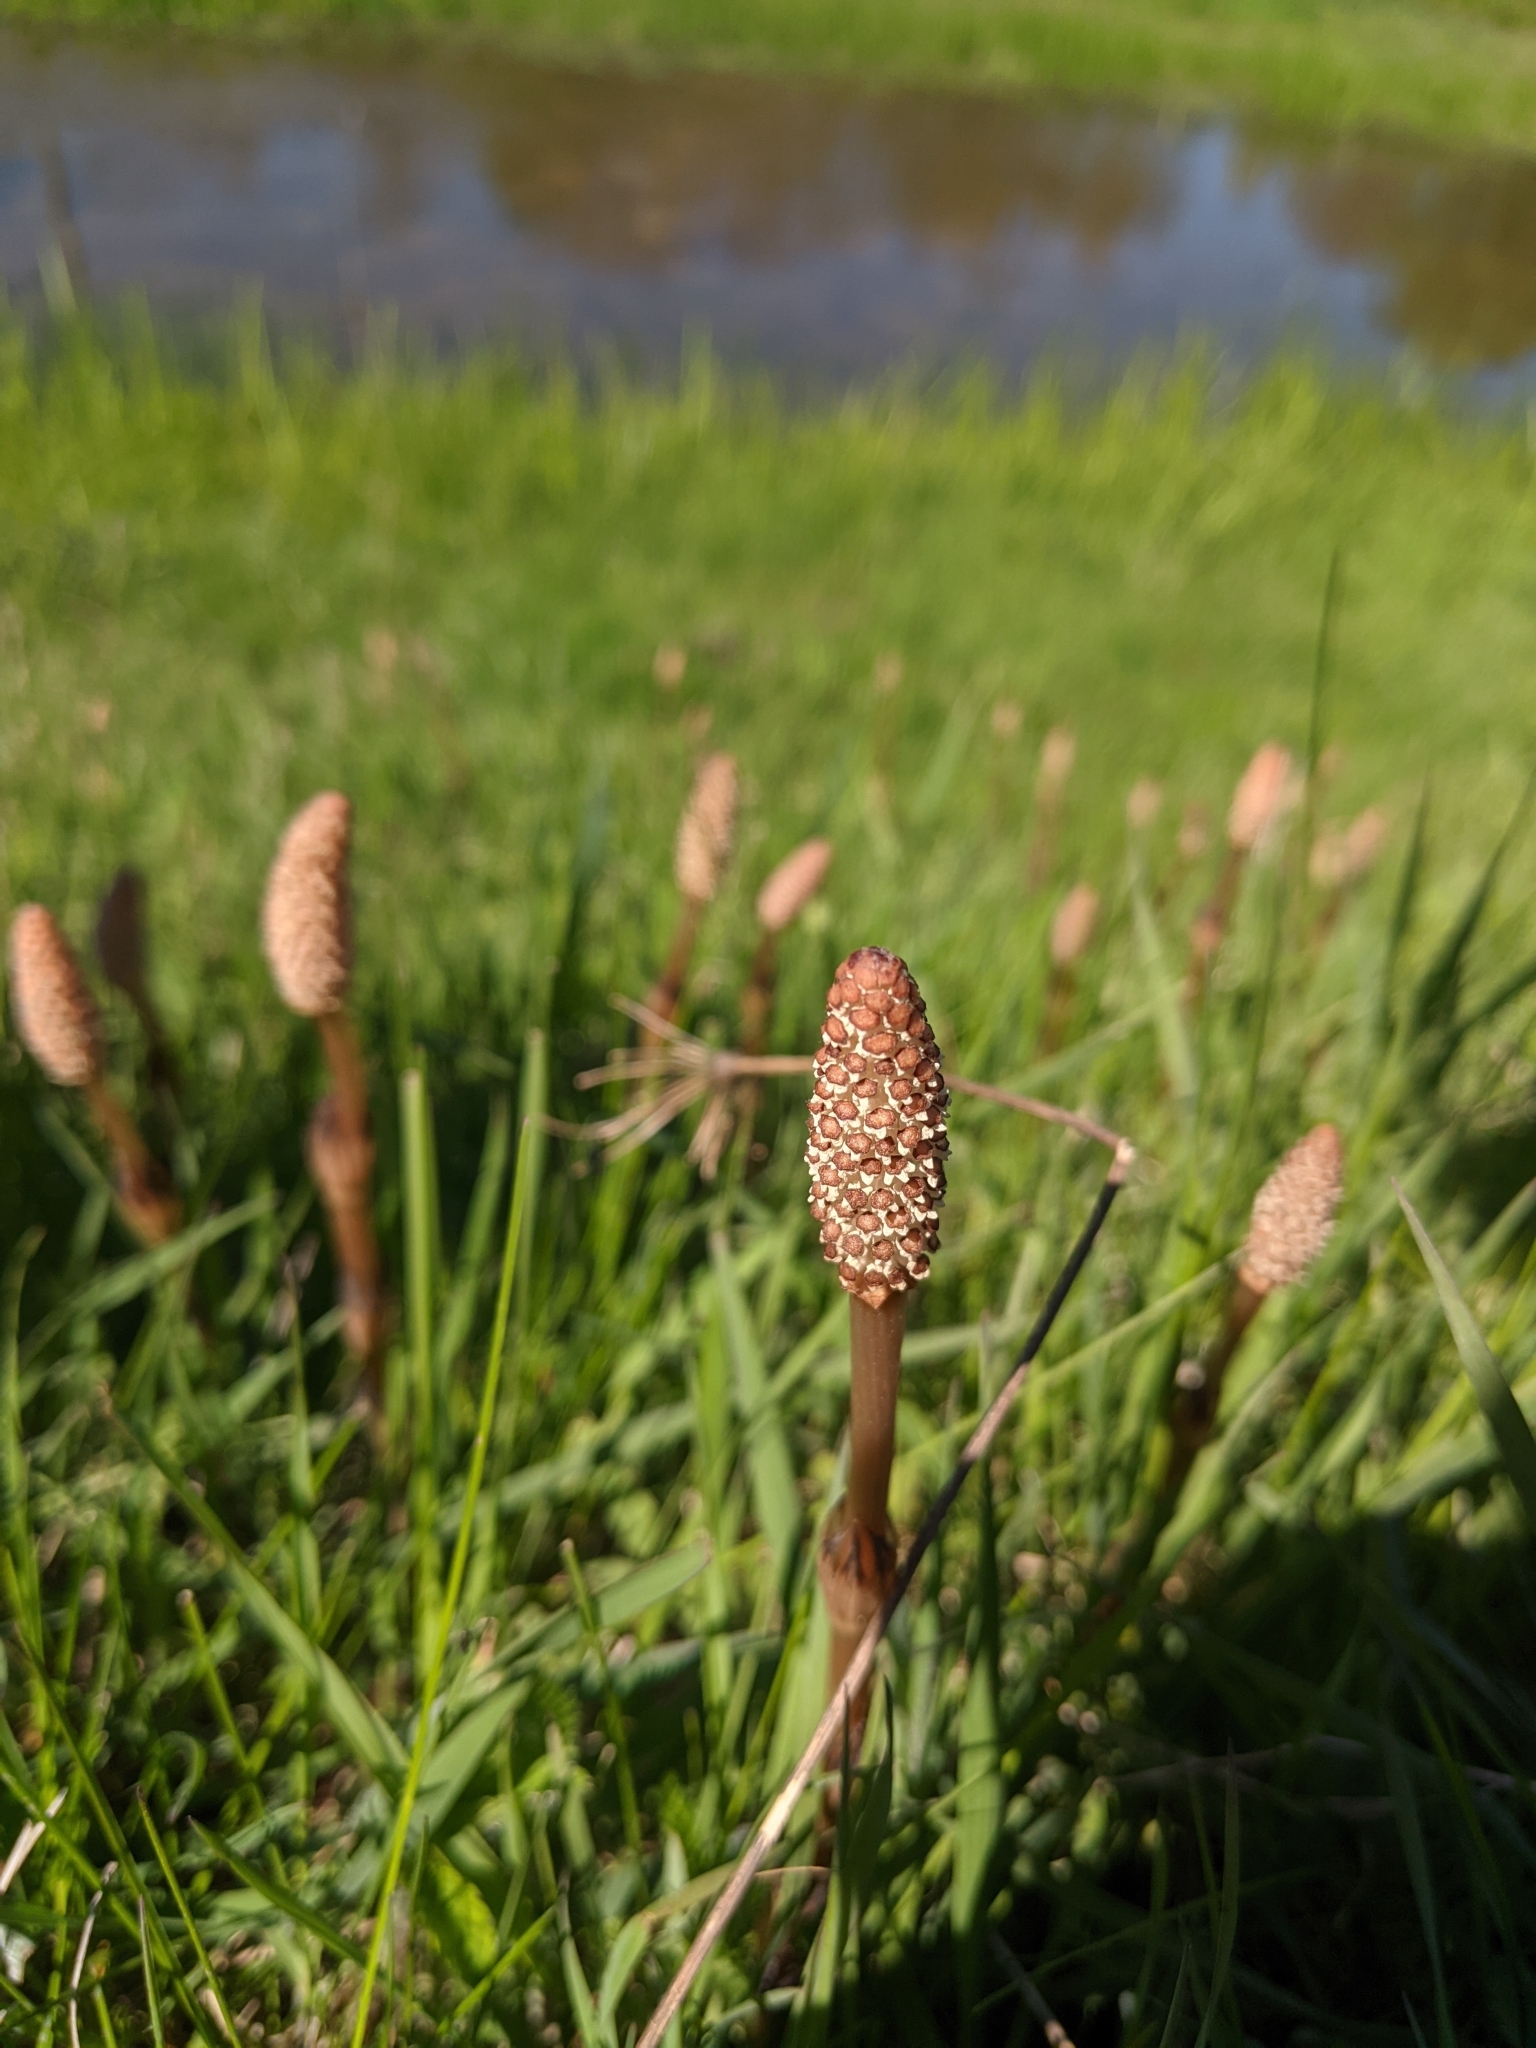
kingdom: Plantae
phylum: Tracheophyta
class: Polypodiopsida
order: Equisetales
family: Equisetaceae
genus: Equisetum
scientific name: Equisetum arvense
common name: Field horsetail
